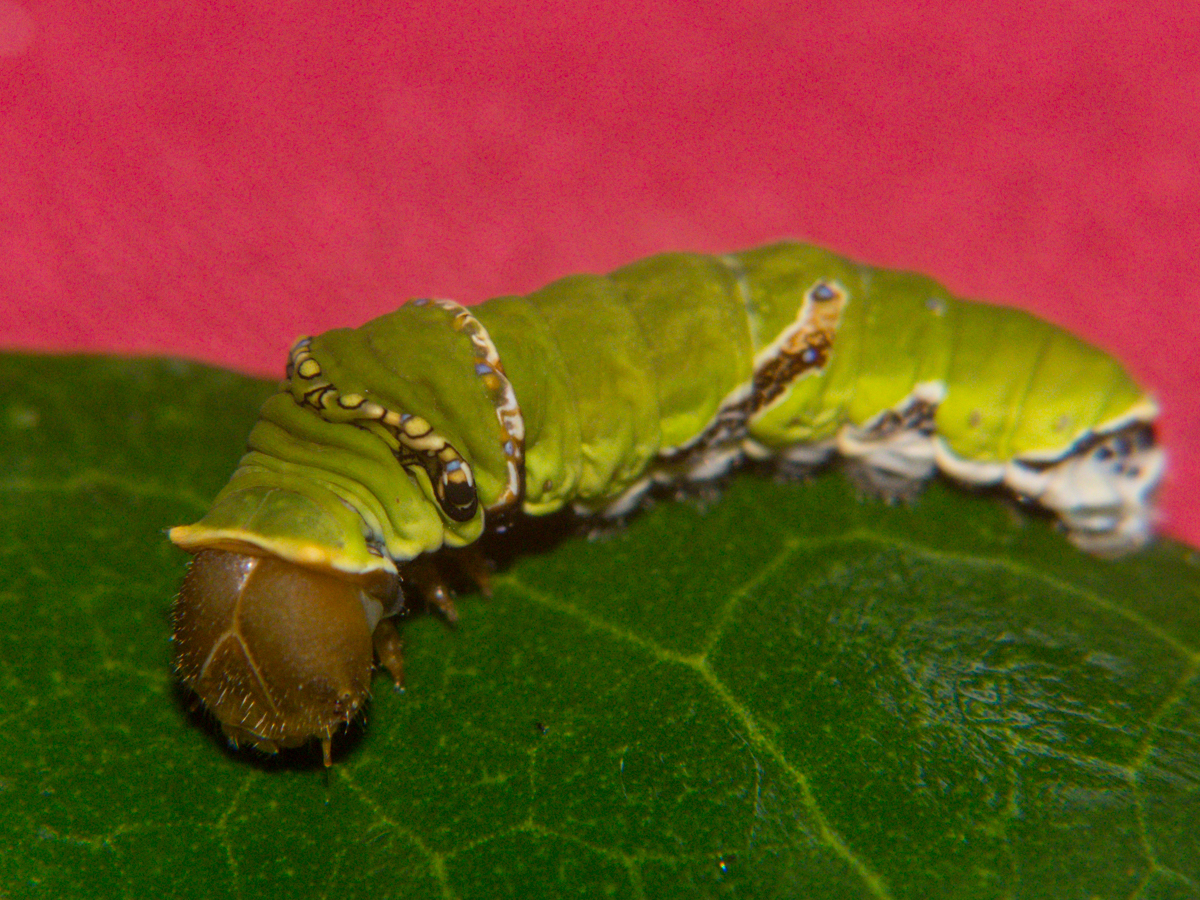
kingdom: Animalia
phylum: Arthropoda
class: Insecta
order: Lepidoptera
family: Papilionidae
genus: Papilio
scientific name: Papilio polytes
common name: Common mormon
